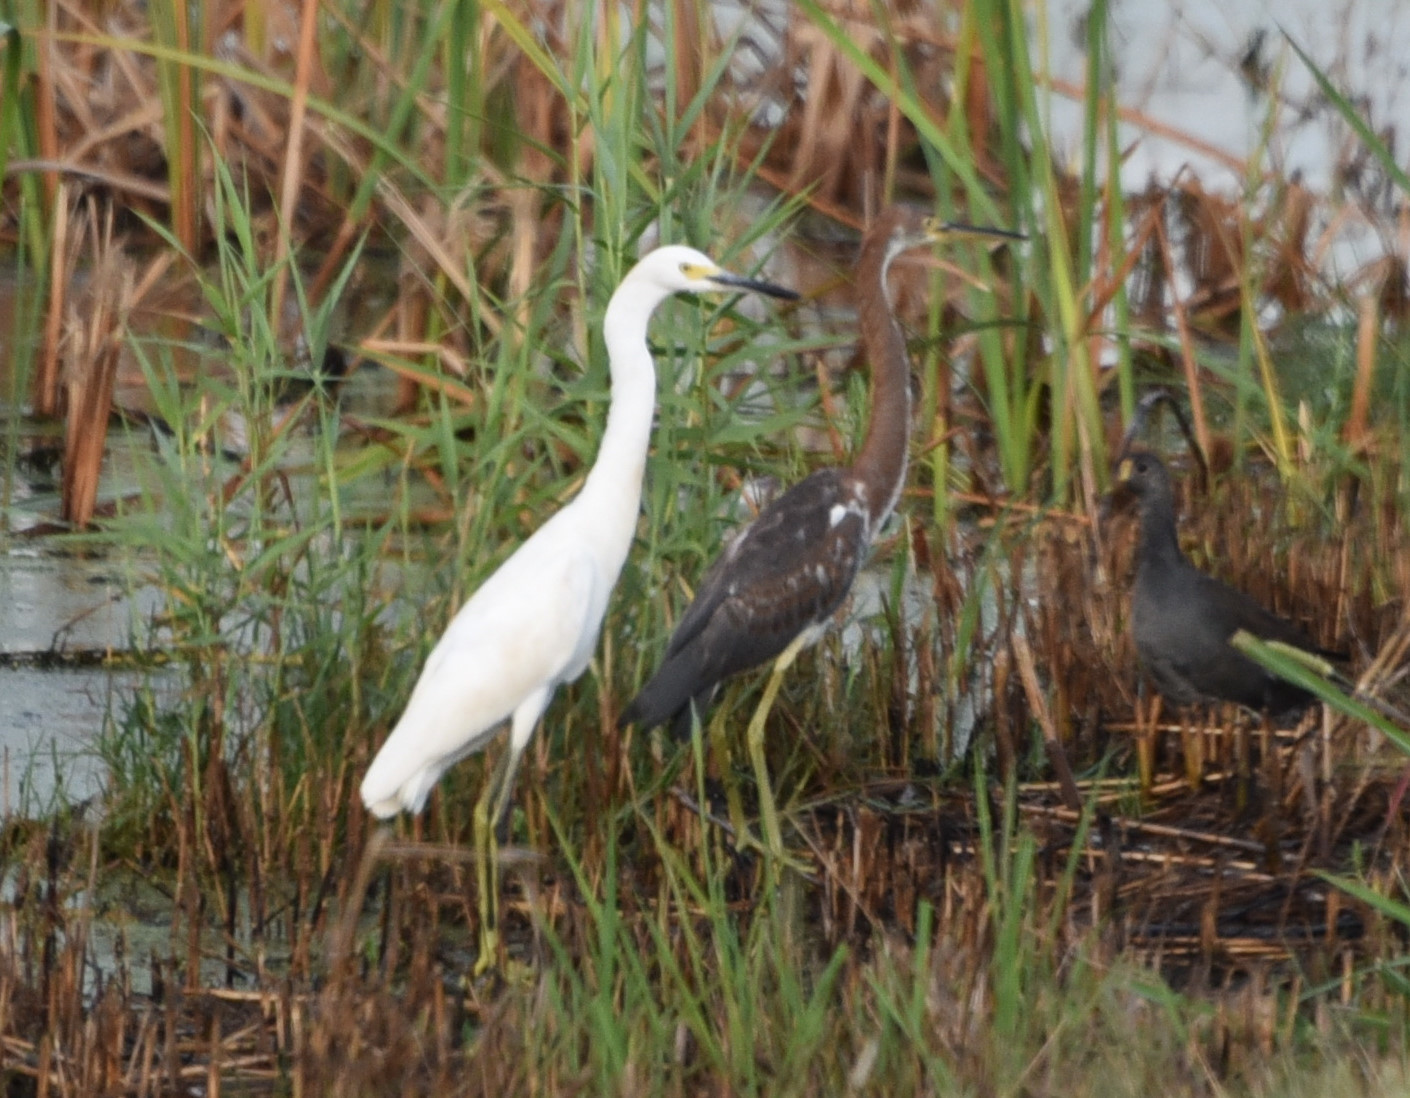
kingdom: Animalia
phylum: Chordata
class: Aves
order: Pelecaniformes
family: Ardeidae
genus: Egretta
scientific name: Egretta thula
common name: Snowy egret
